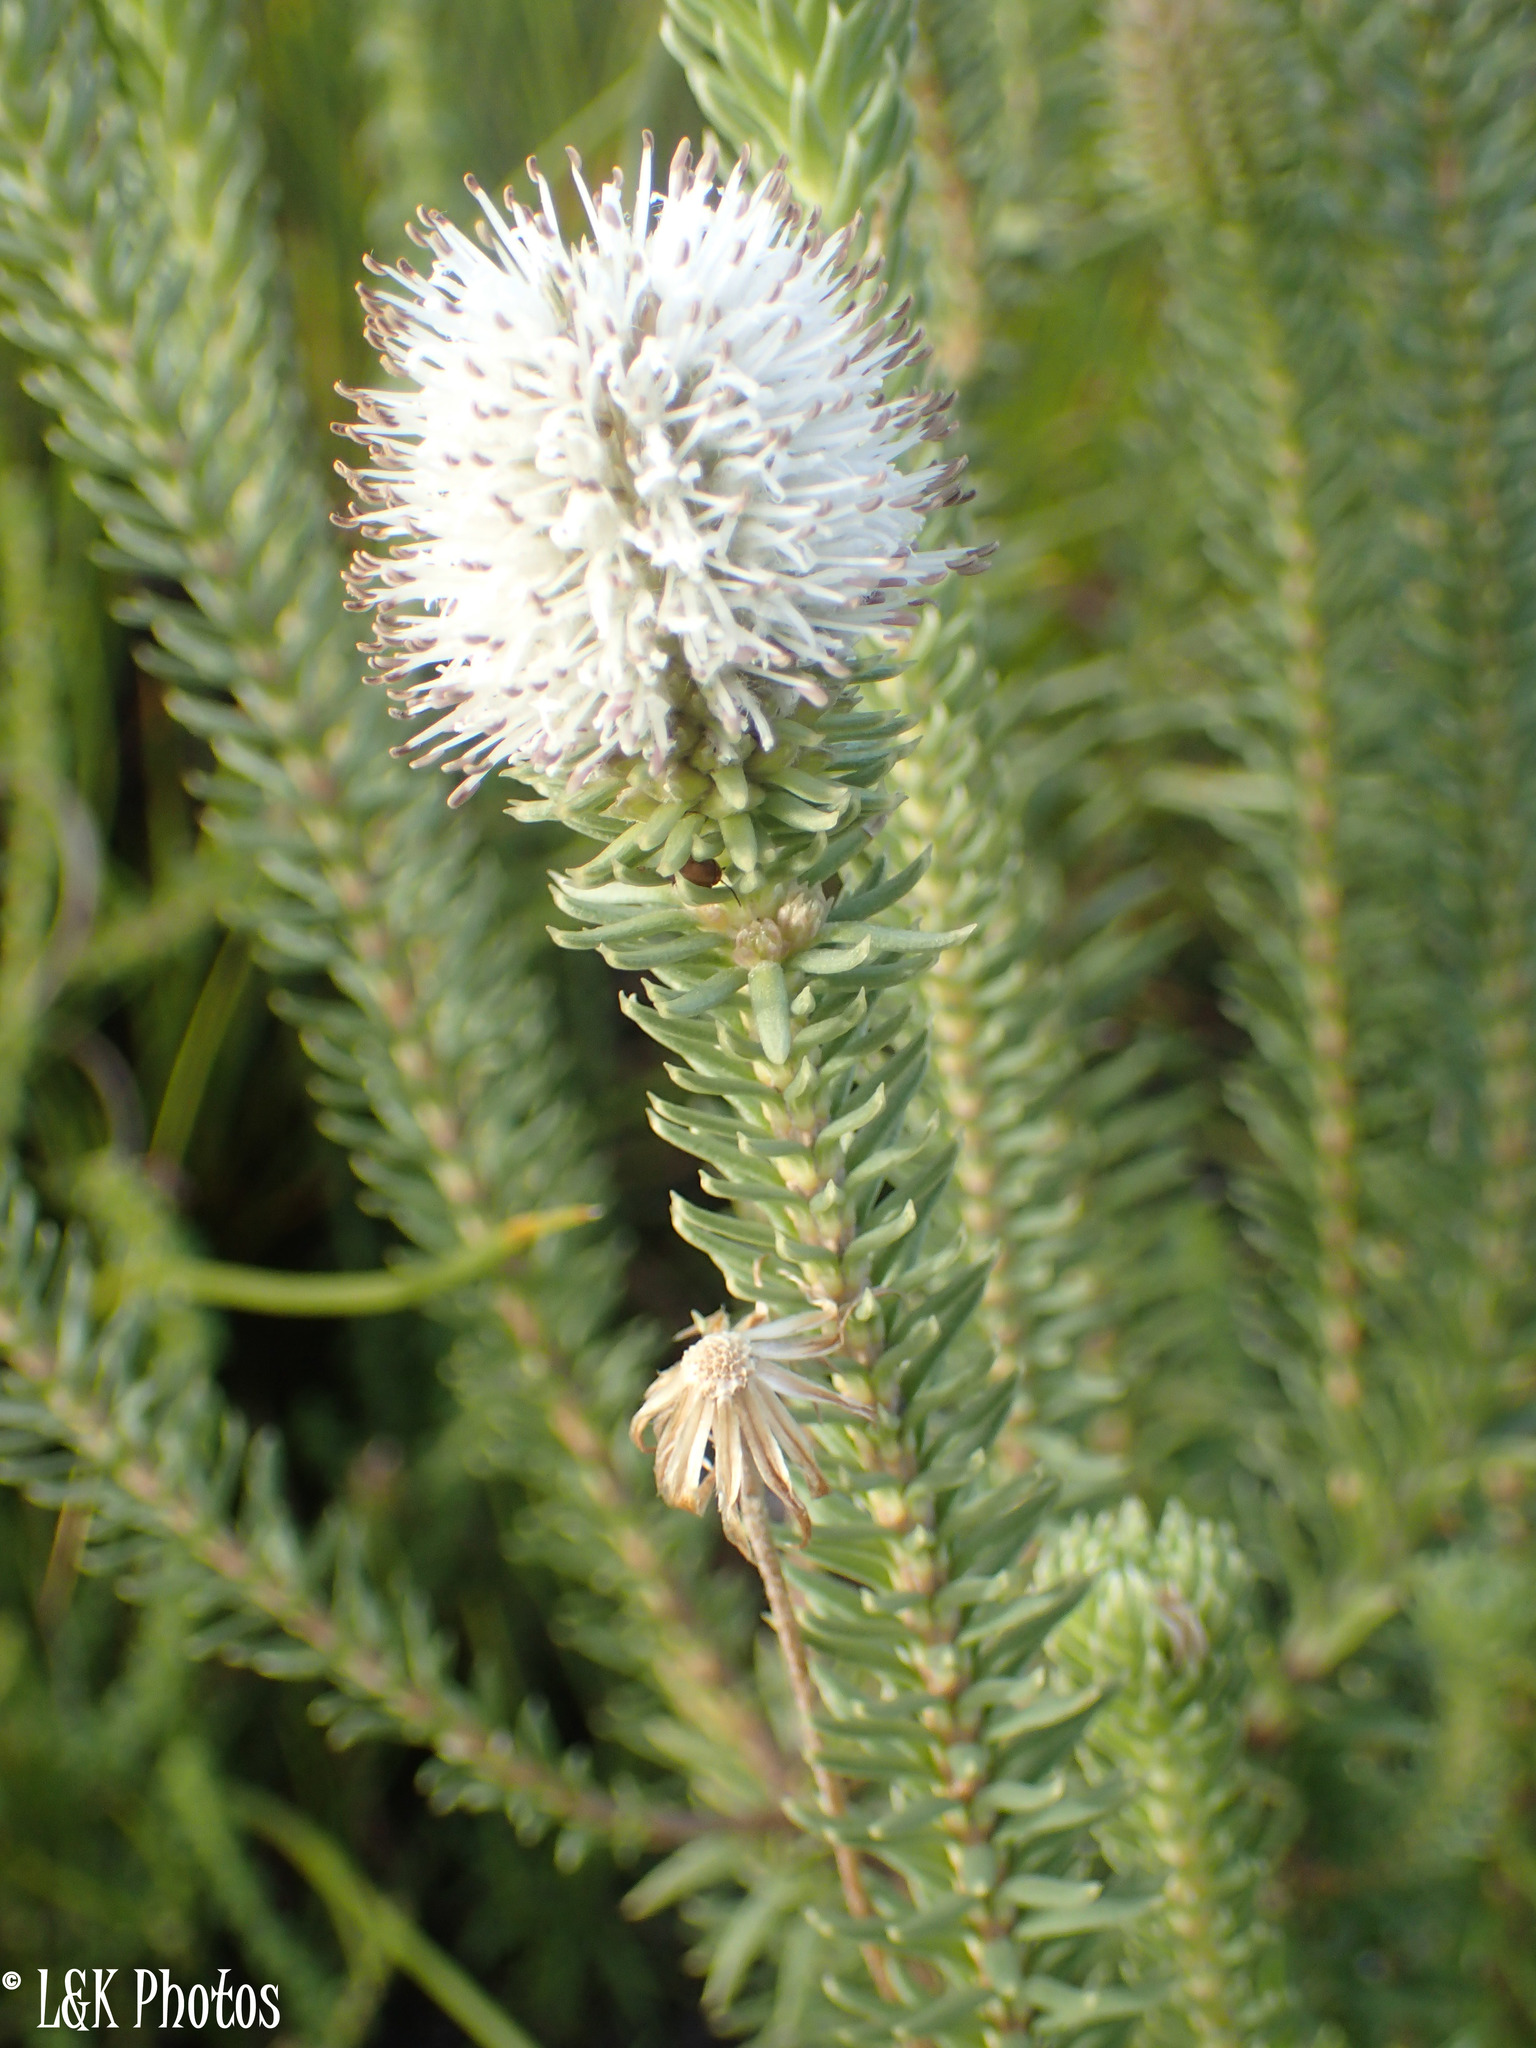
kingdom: Plantae
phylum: Tracheophyta
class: Magnoliopsida
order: Lamiales
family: Stilbaceae
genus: Stilbe
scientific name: Stilbe vestita
